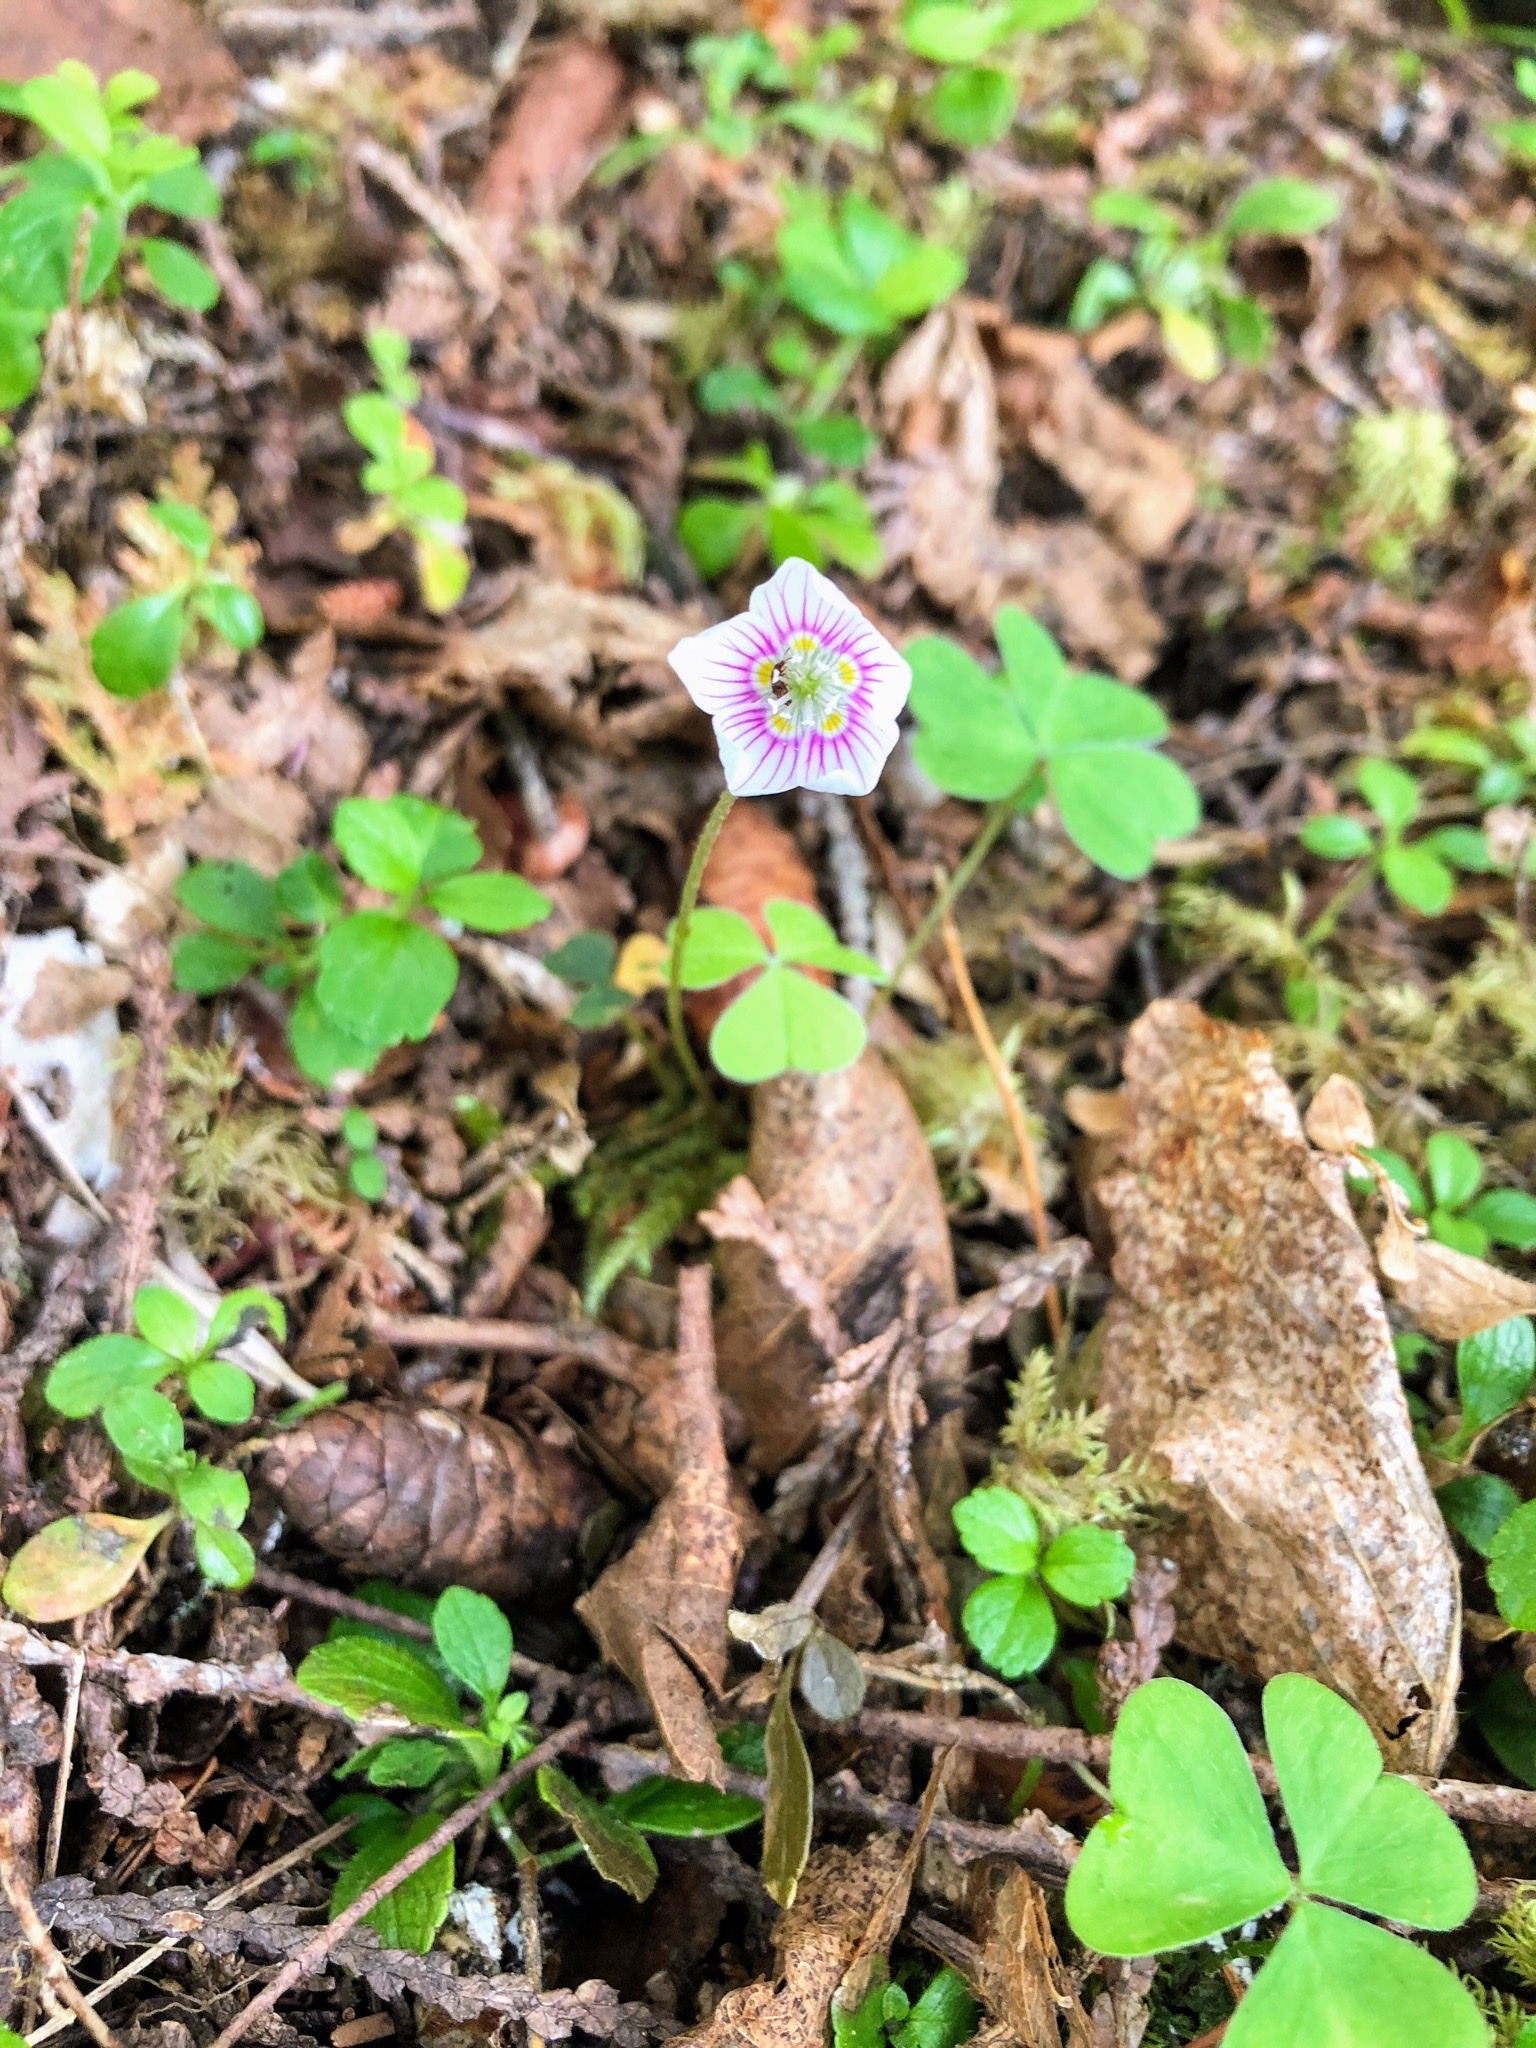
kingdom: Plantae
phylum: Tracheophyta
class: Magnoliopsida
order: Oxalidales
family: Oxalidaceae
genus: Oxalis
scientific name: Oxalis montana
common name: American wood-sorrel
